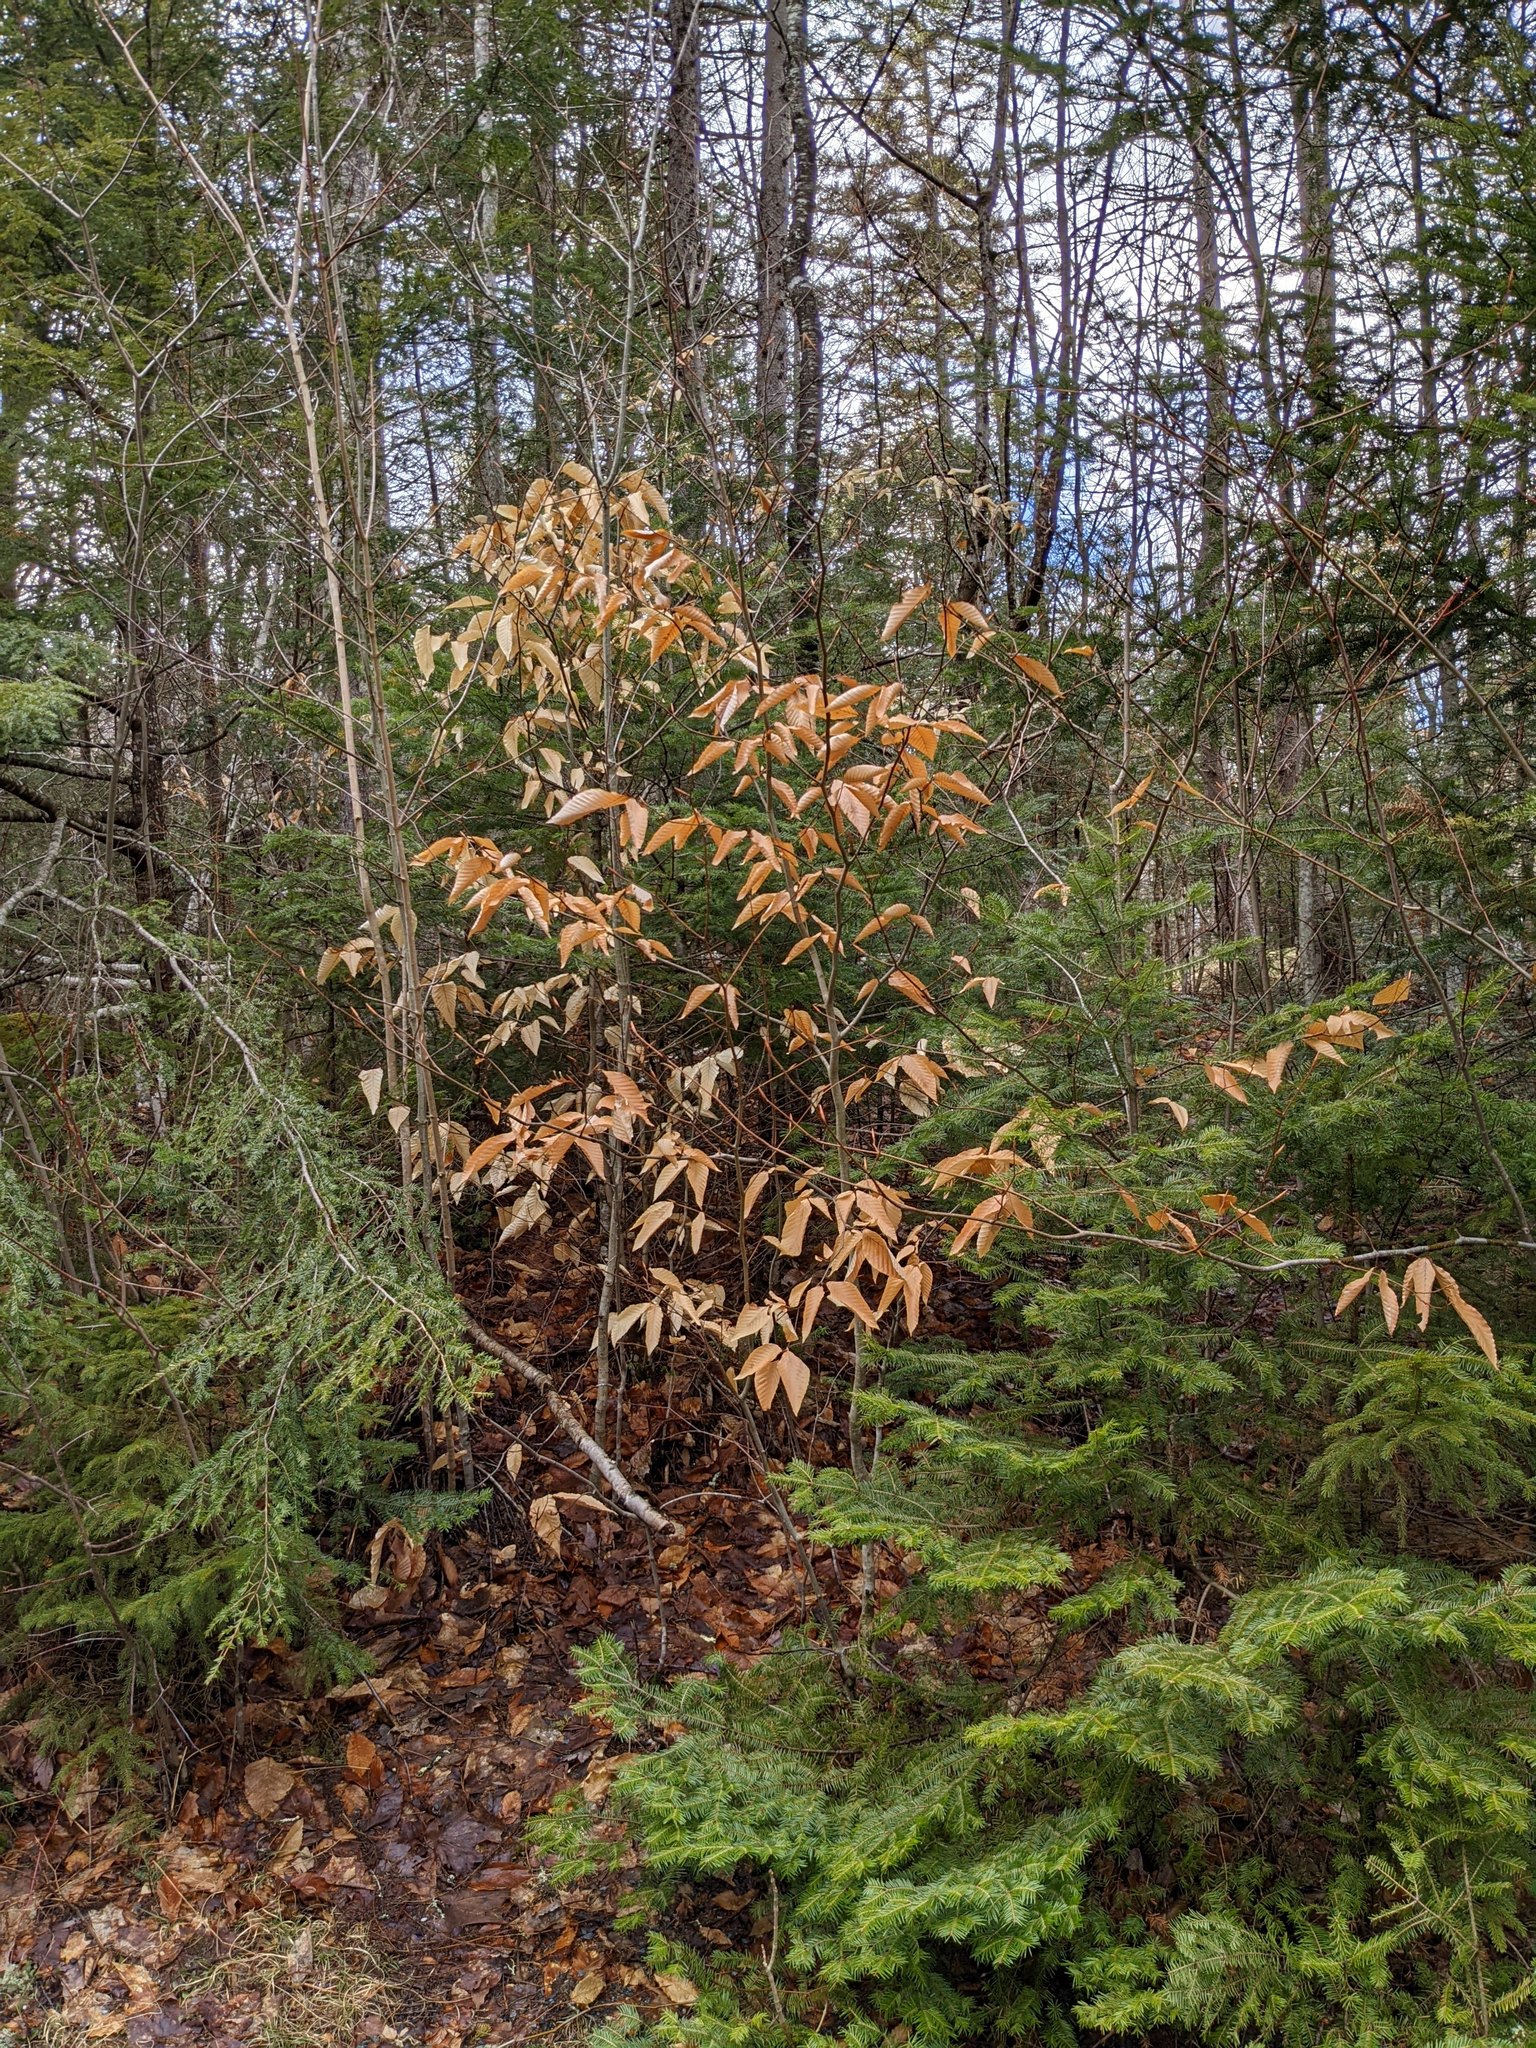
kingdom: Plantae
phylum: Tracheophyta
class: Magnoliopsida
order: Fagales
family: Fagaceae
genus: Fagus
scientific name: Fagus grandifolia
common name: American beech
